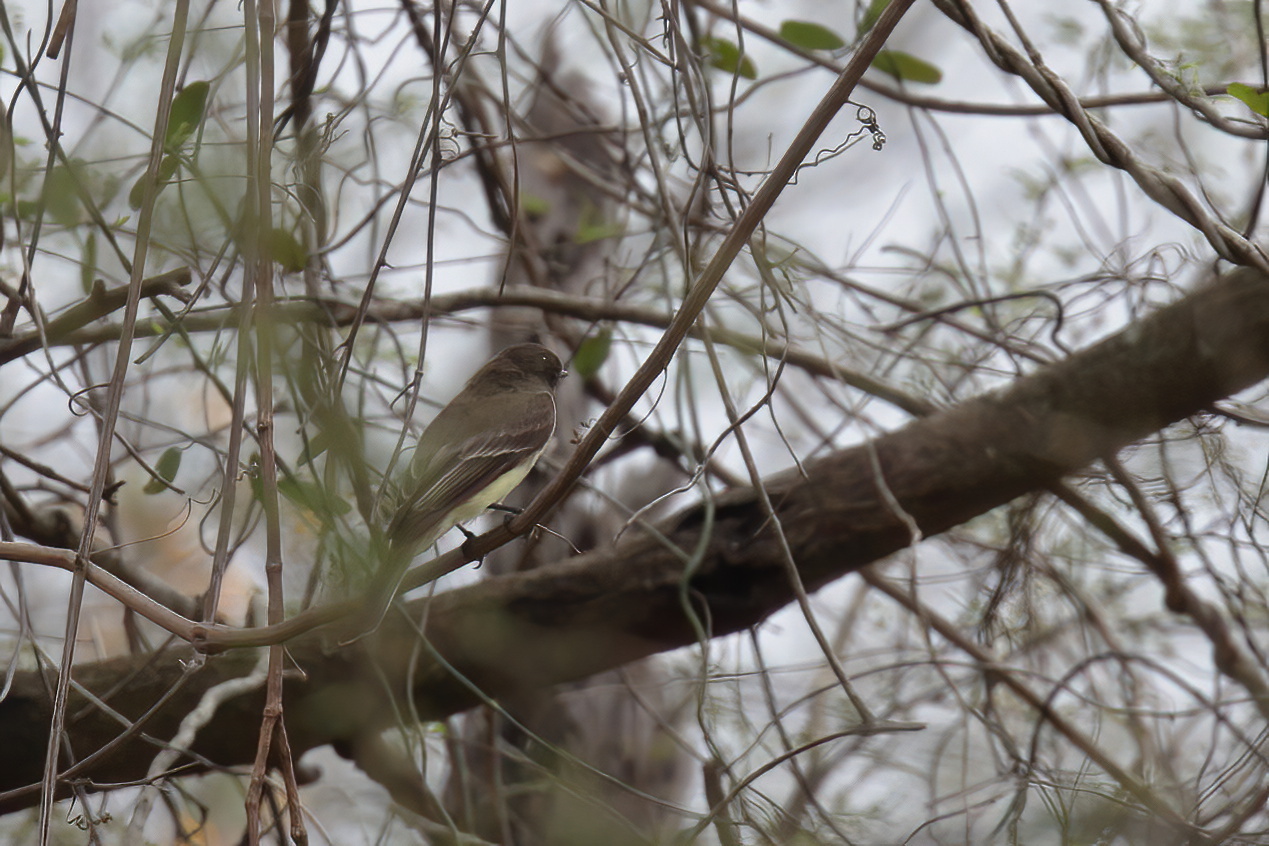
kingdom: Animalia
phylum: Chordata
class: Aves
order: Passeriformes
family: Tyrannidae
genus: Sayornis
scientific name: Sayornis phoebe
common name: Eastern phoebe
